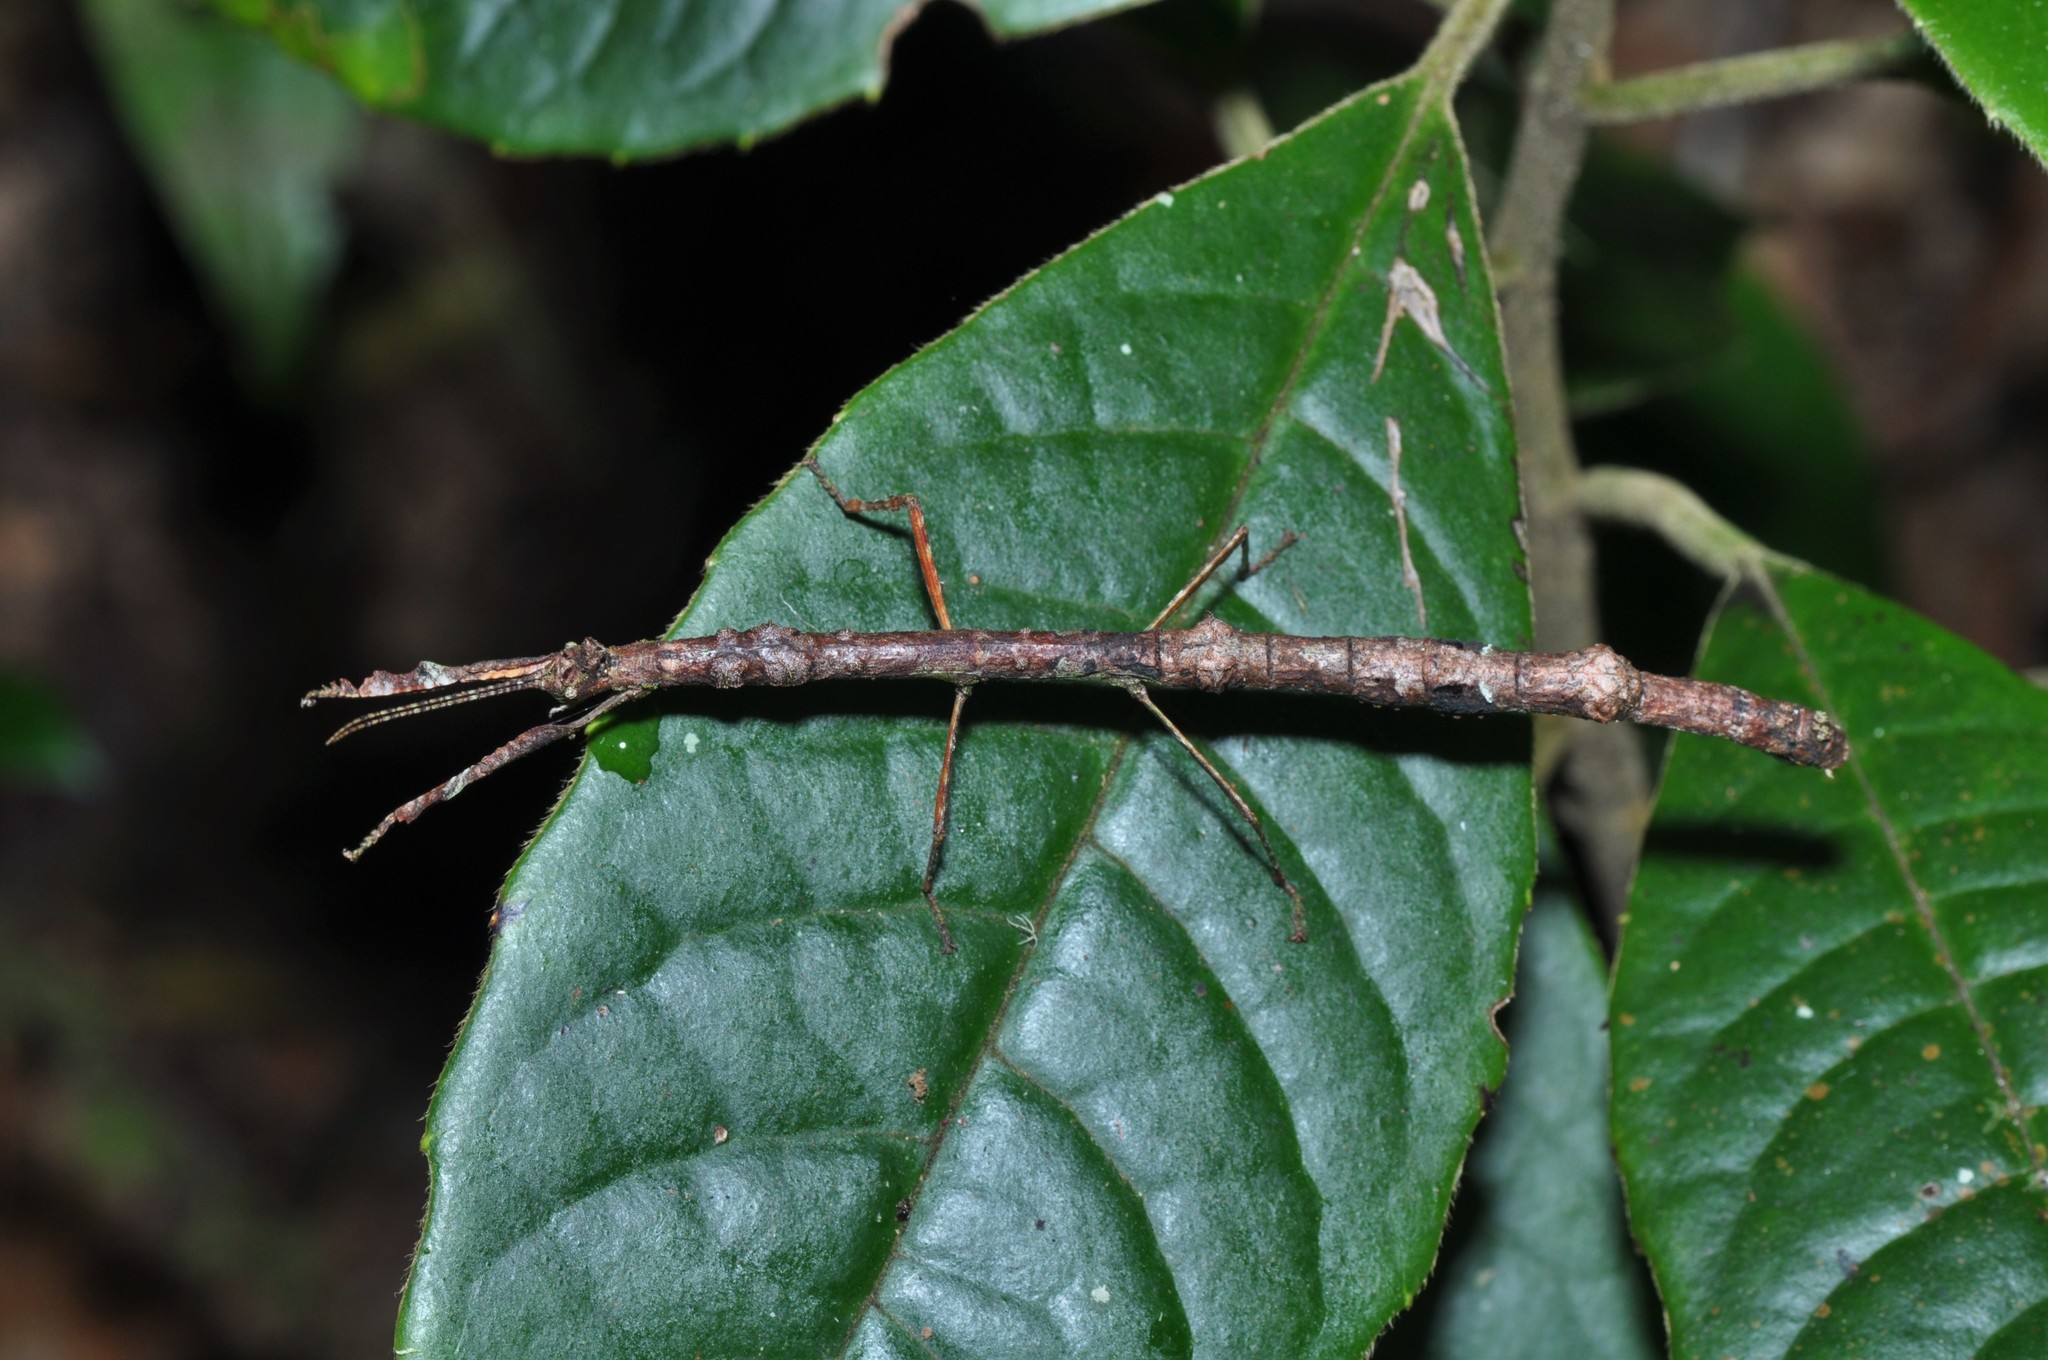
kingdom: Animalia
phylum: Arthropoda
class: Insecta
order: Phasmida
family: Lonchodidae
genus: Stalocagorus
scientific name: Stalocagorus rahmani
